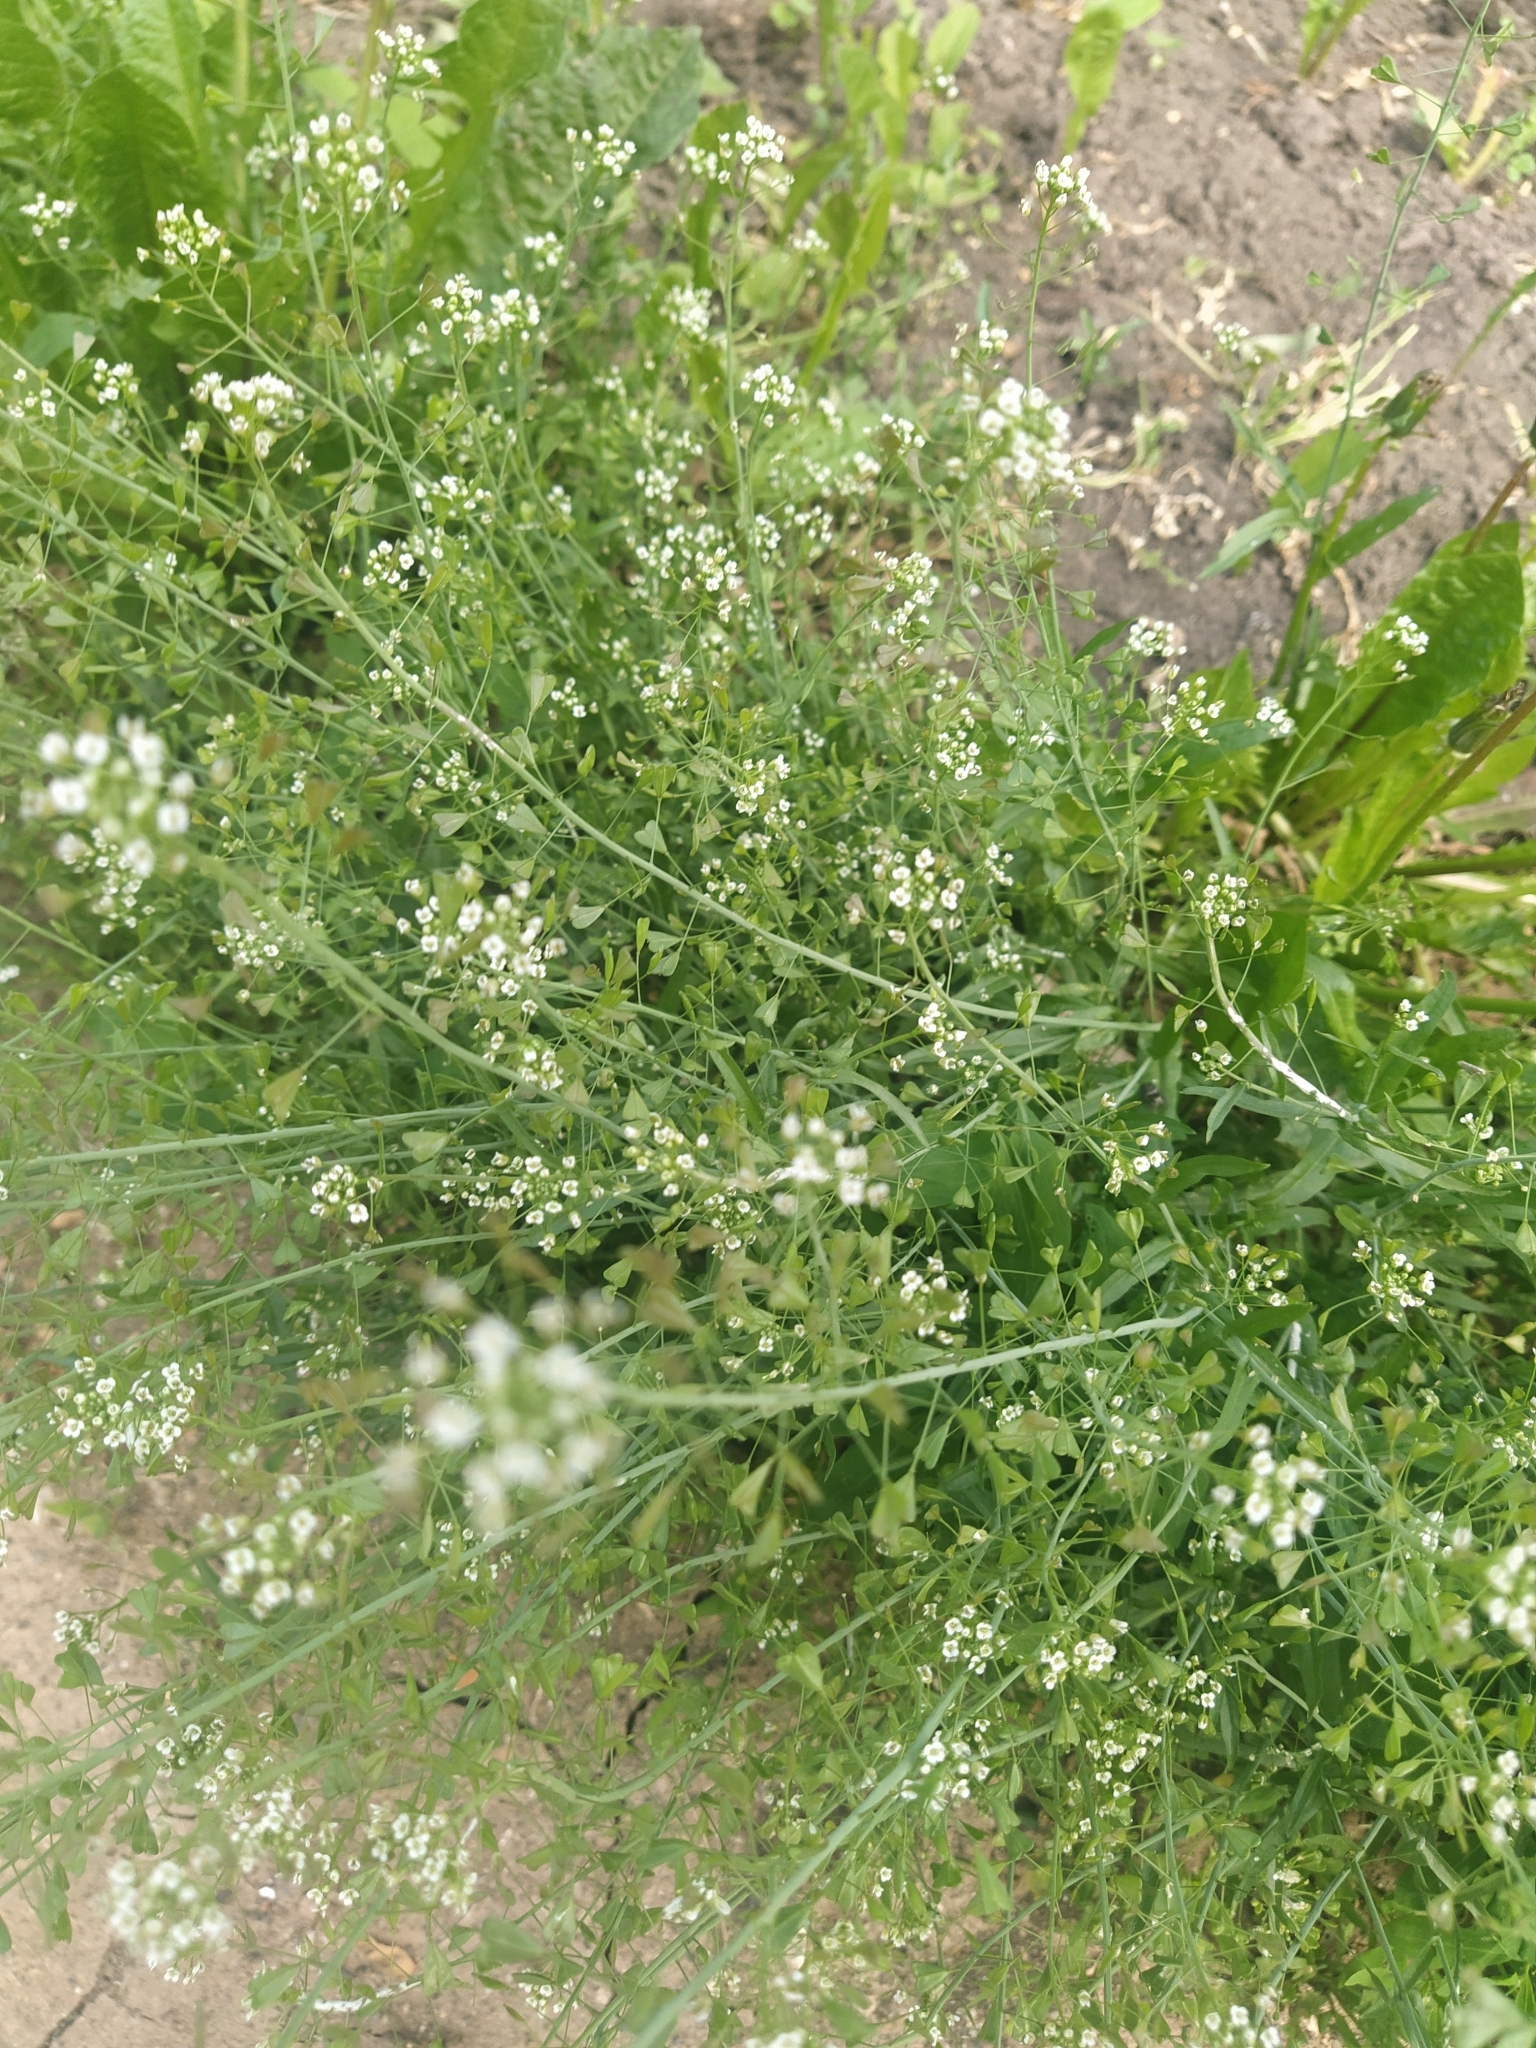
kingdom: Plantae
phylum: Tracheophyta
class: Magnoliopsida
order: Brassicales
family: Brassicaceae
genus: Capsella
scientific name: Capsella bursa-pastoris
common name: Shepherd's purse
